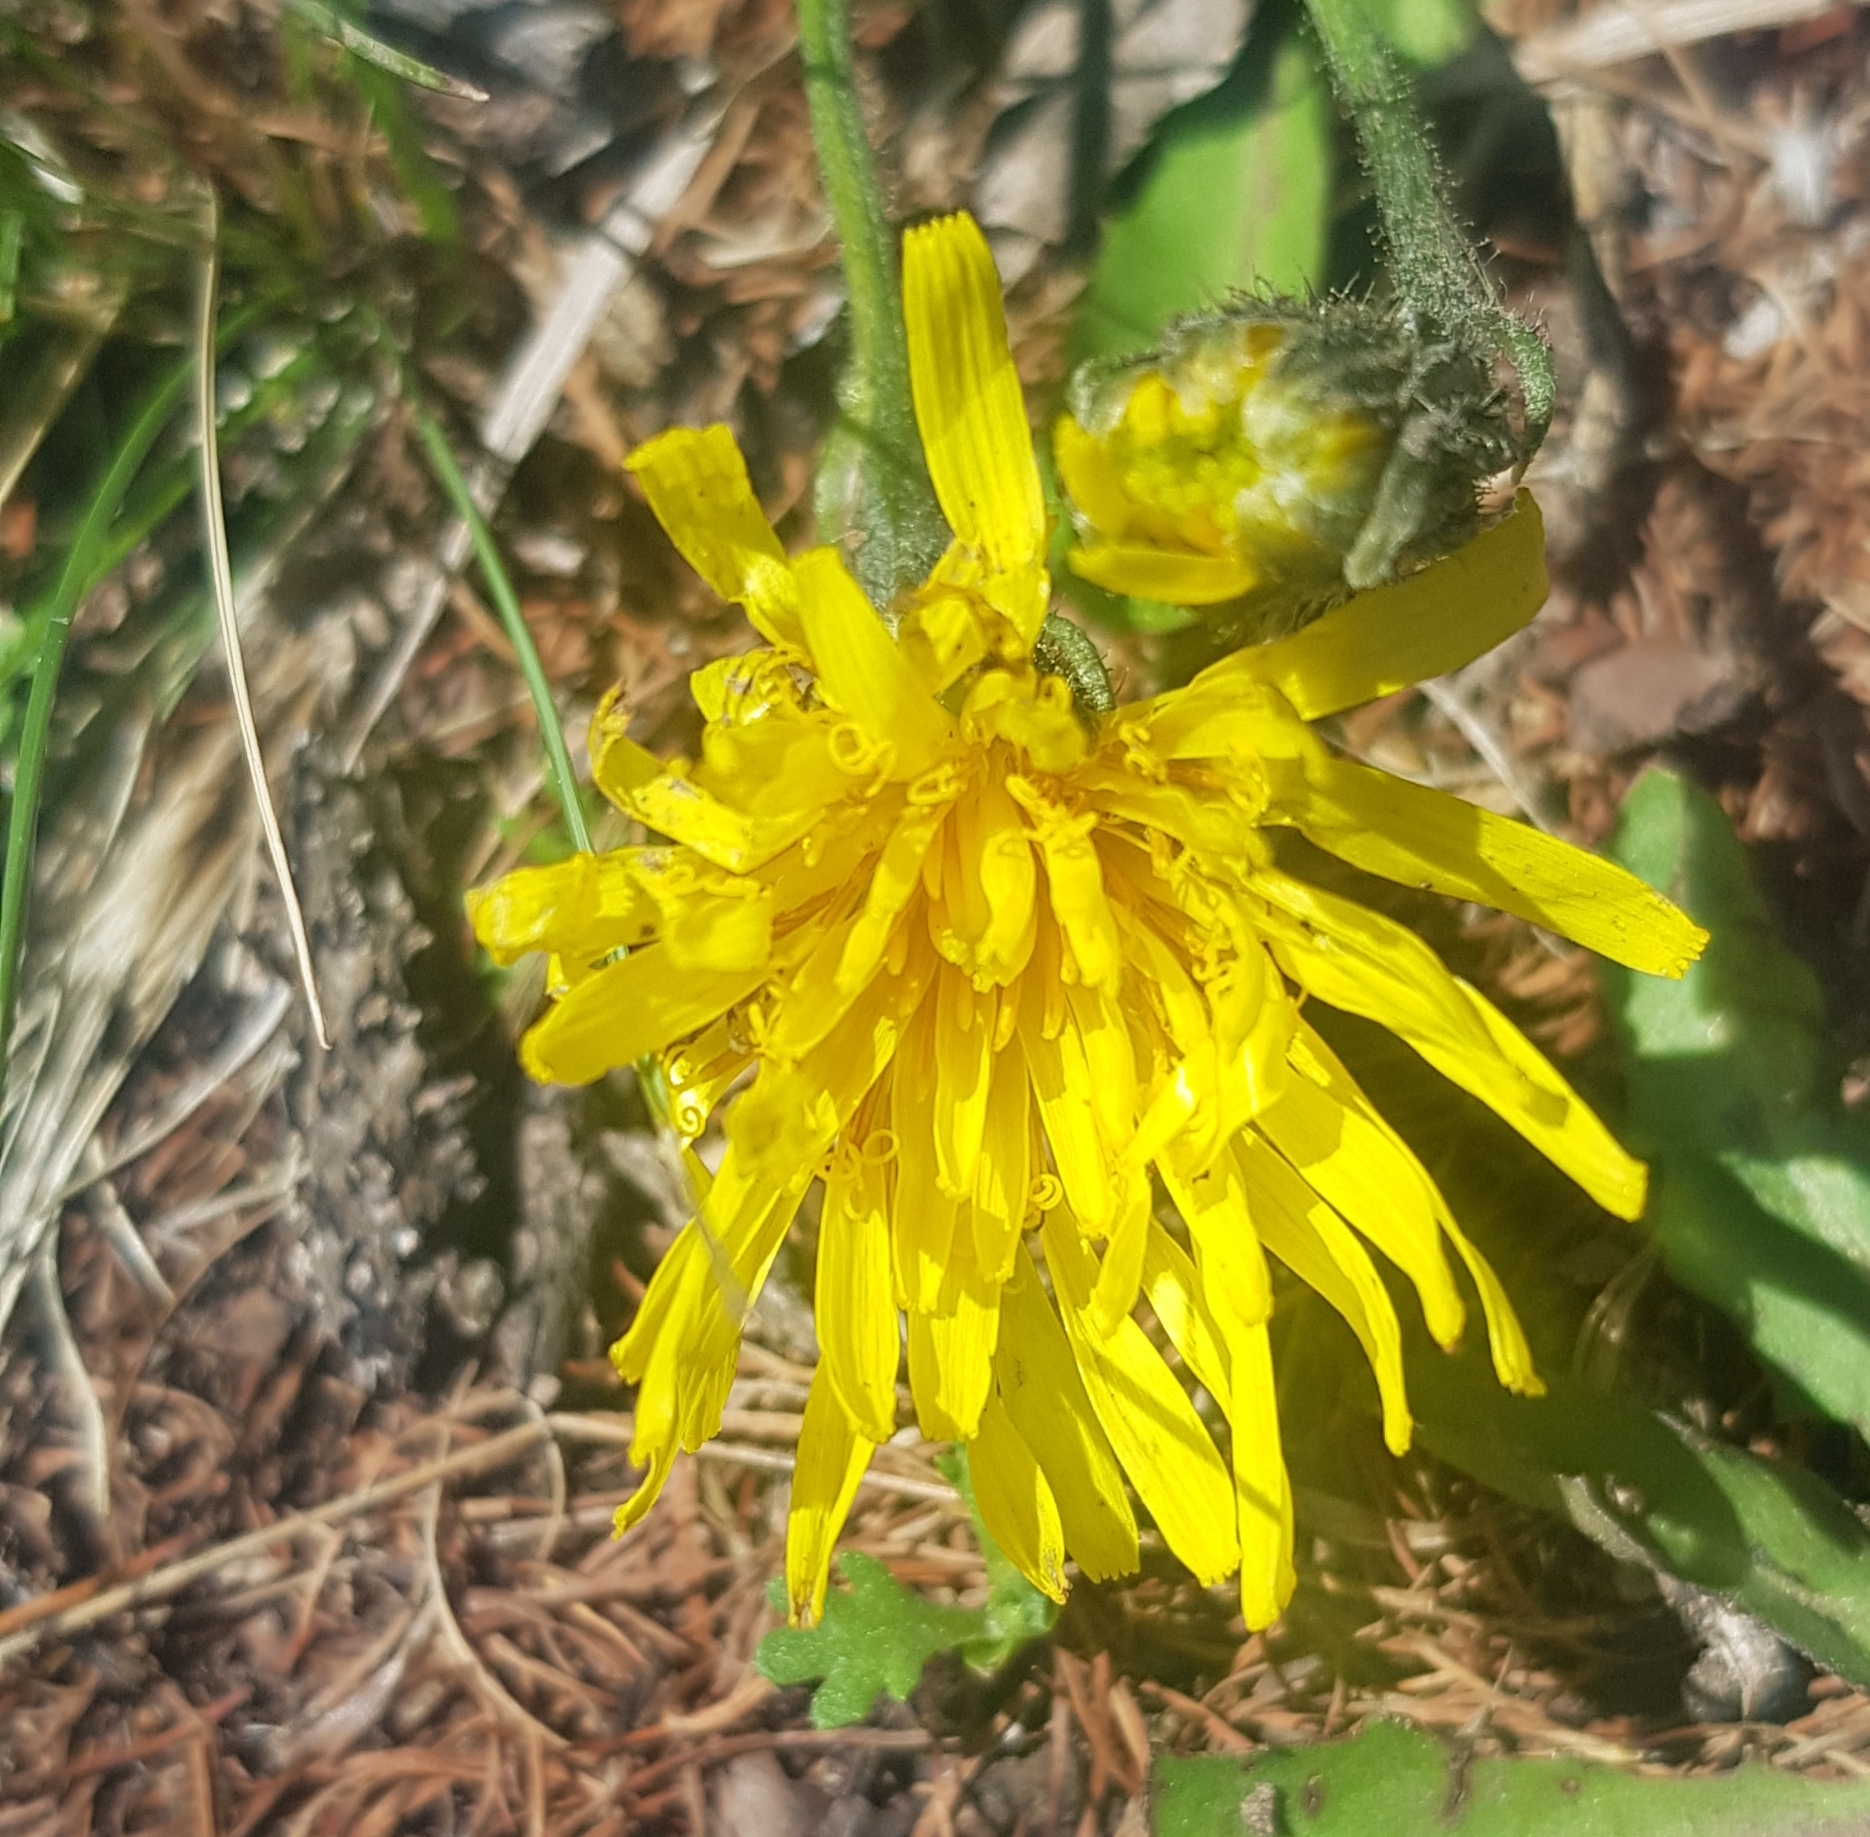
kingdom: Plantae
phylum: Tracheophyta
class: Magnoliopsida
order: Asterales
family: Asteraceae
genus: Scorzonera
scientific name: Scorzonera radiata
